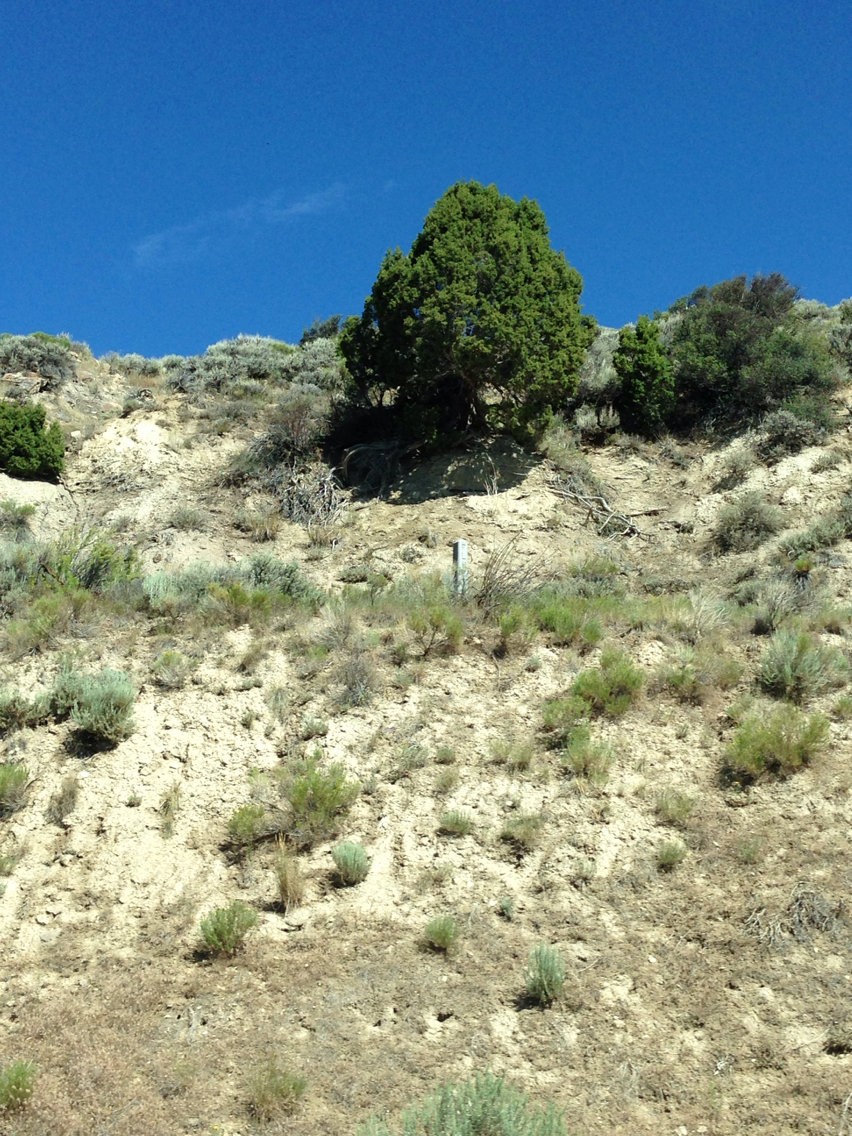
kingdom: Plantae
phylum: Tracheophyta
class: Pinopsida
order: Pinales
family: Cupressaceae
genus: Juniperus
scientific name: Juniperus osteosperma
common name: Utah juniper
